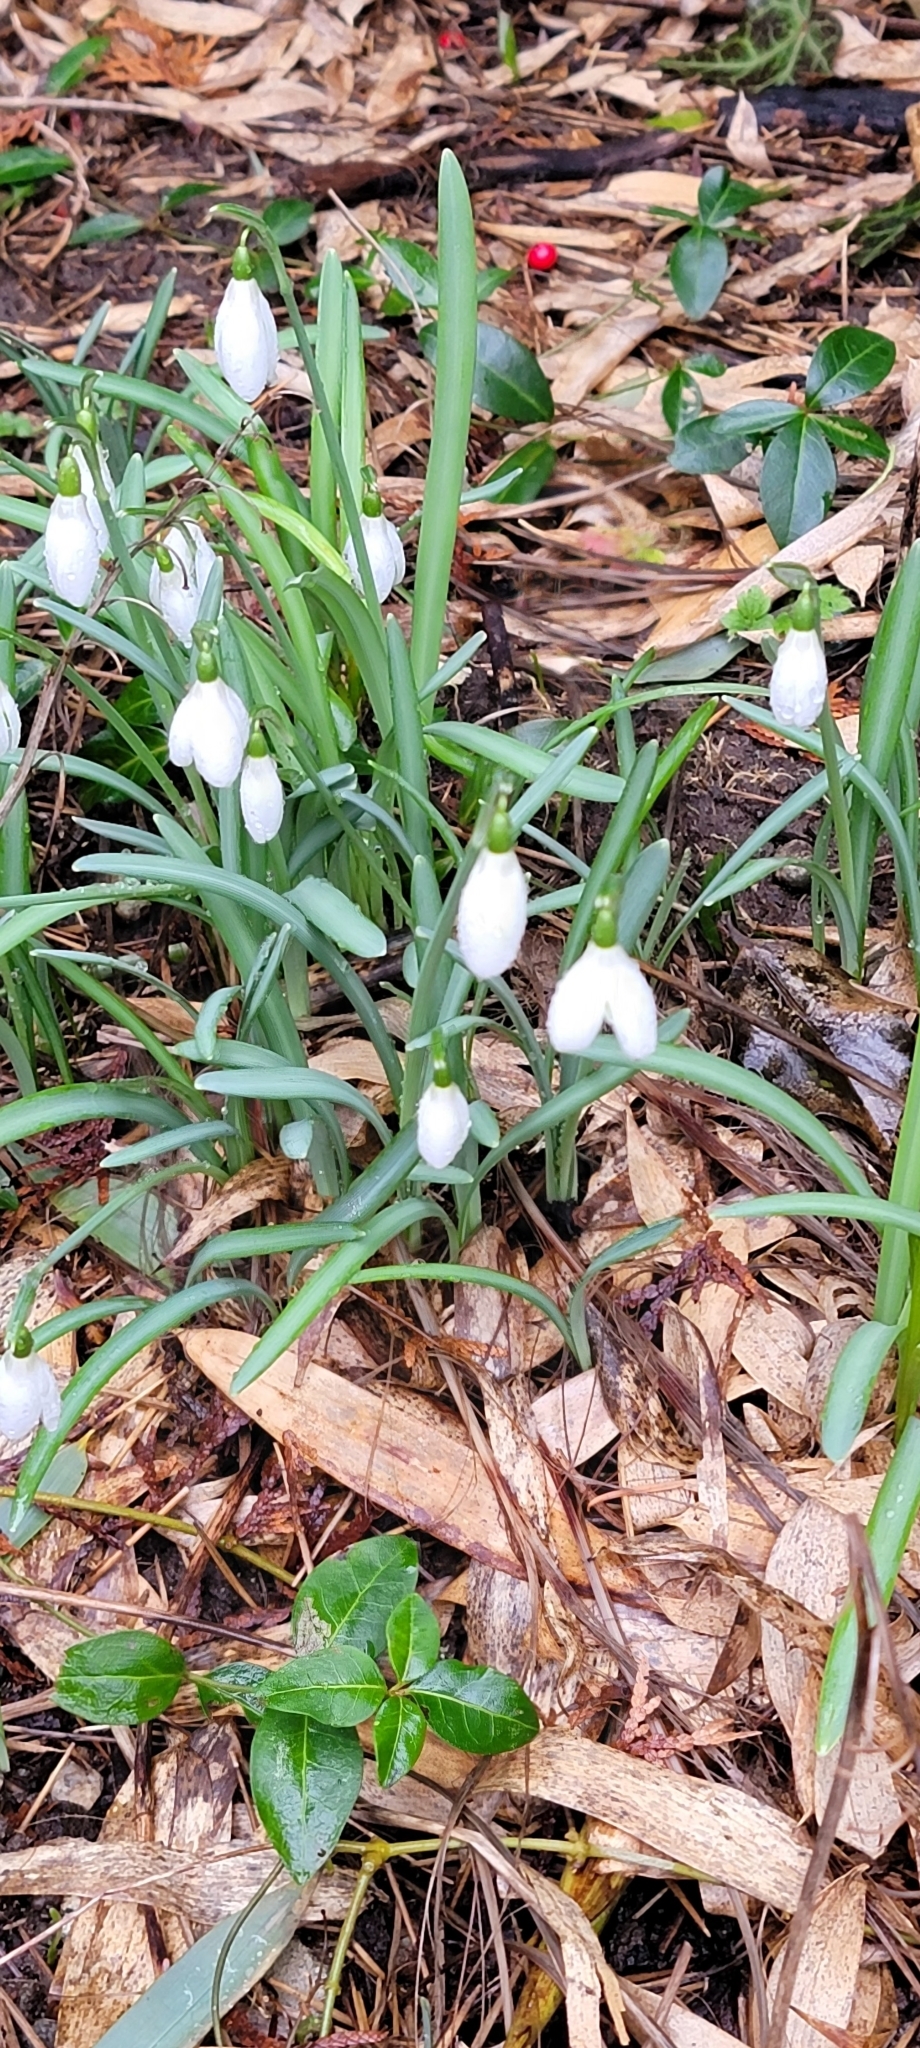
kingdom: Plantae
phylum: Tracheophyta
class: Liliopsida
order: Asparagales
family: Amaryllidaceae
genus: Galanthus
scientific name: Galanthus nivalis
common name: Snowdrop
